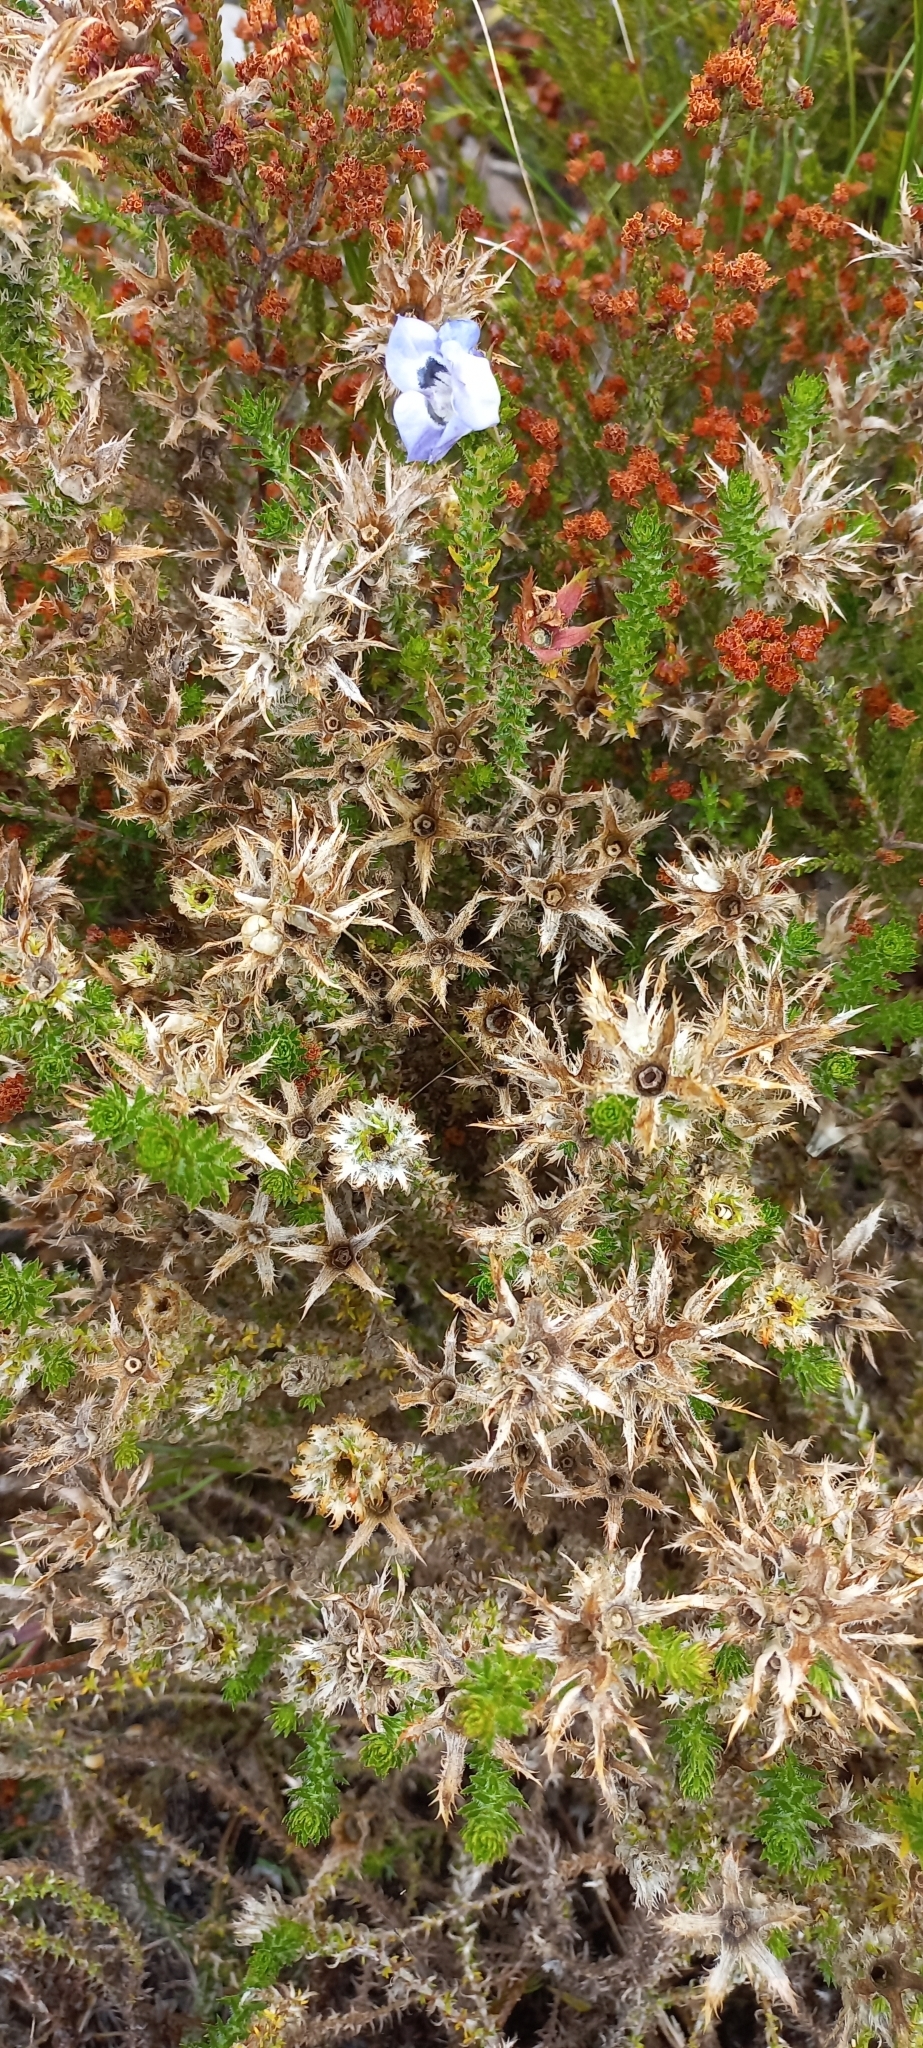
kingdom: Plantae
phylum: Tracheophyta
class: Magnoliopsida
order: Asterales
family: Campanulaceae
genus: Roella
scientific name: Roella ciliata
